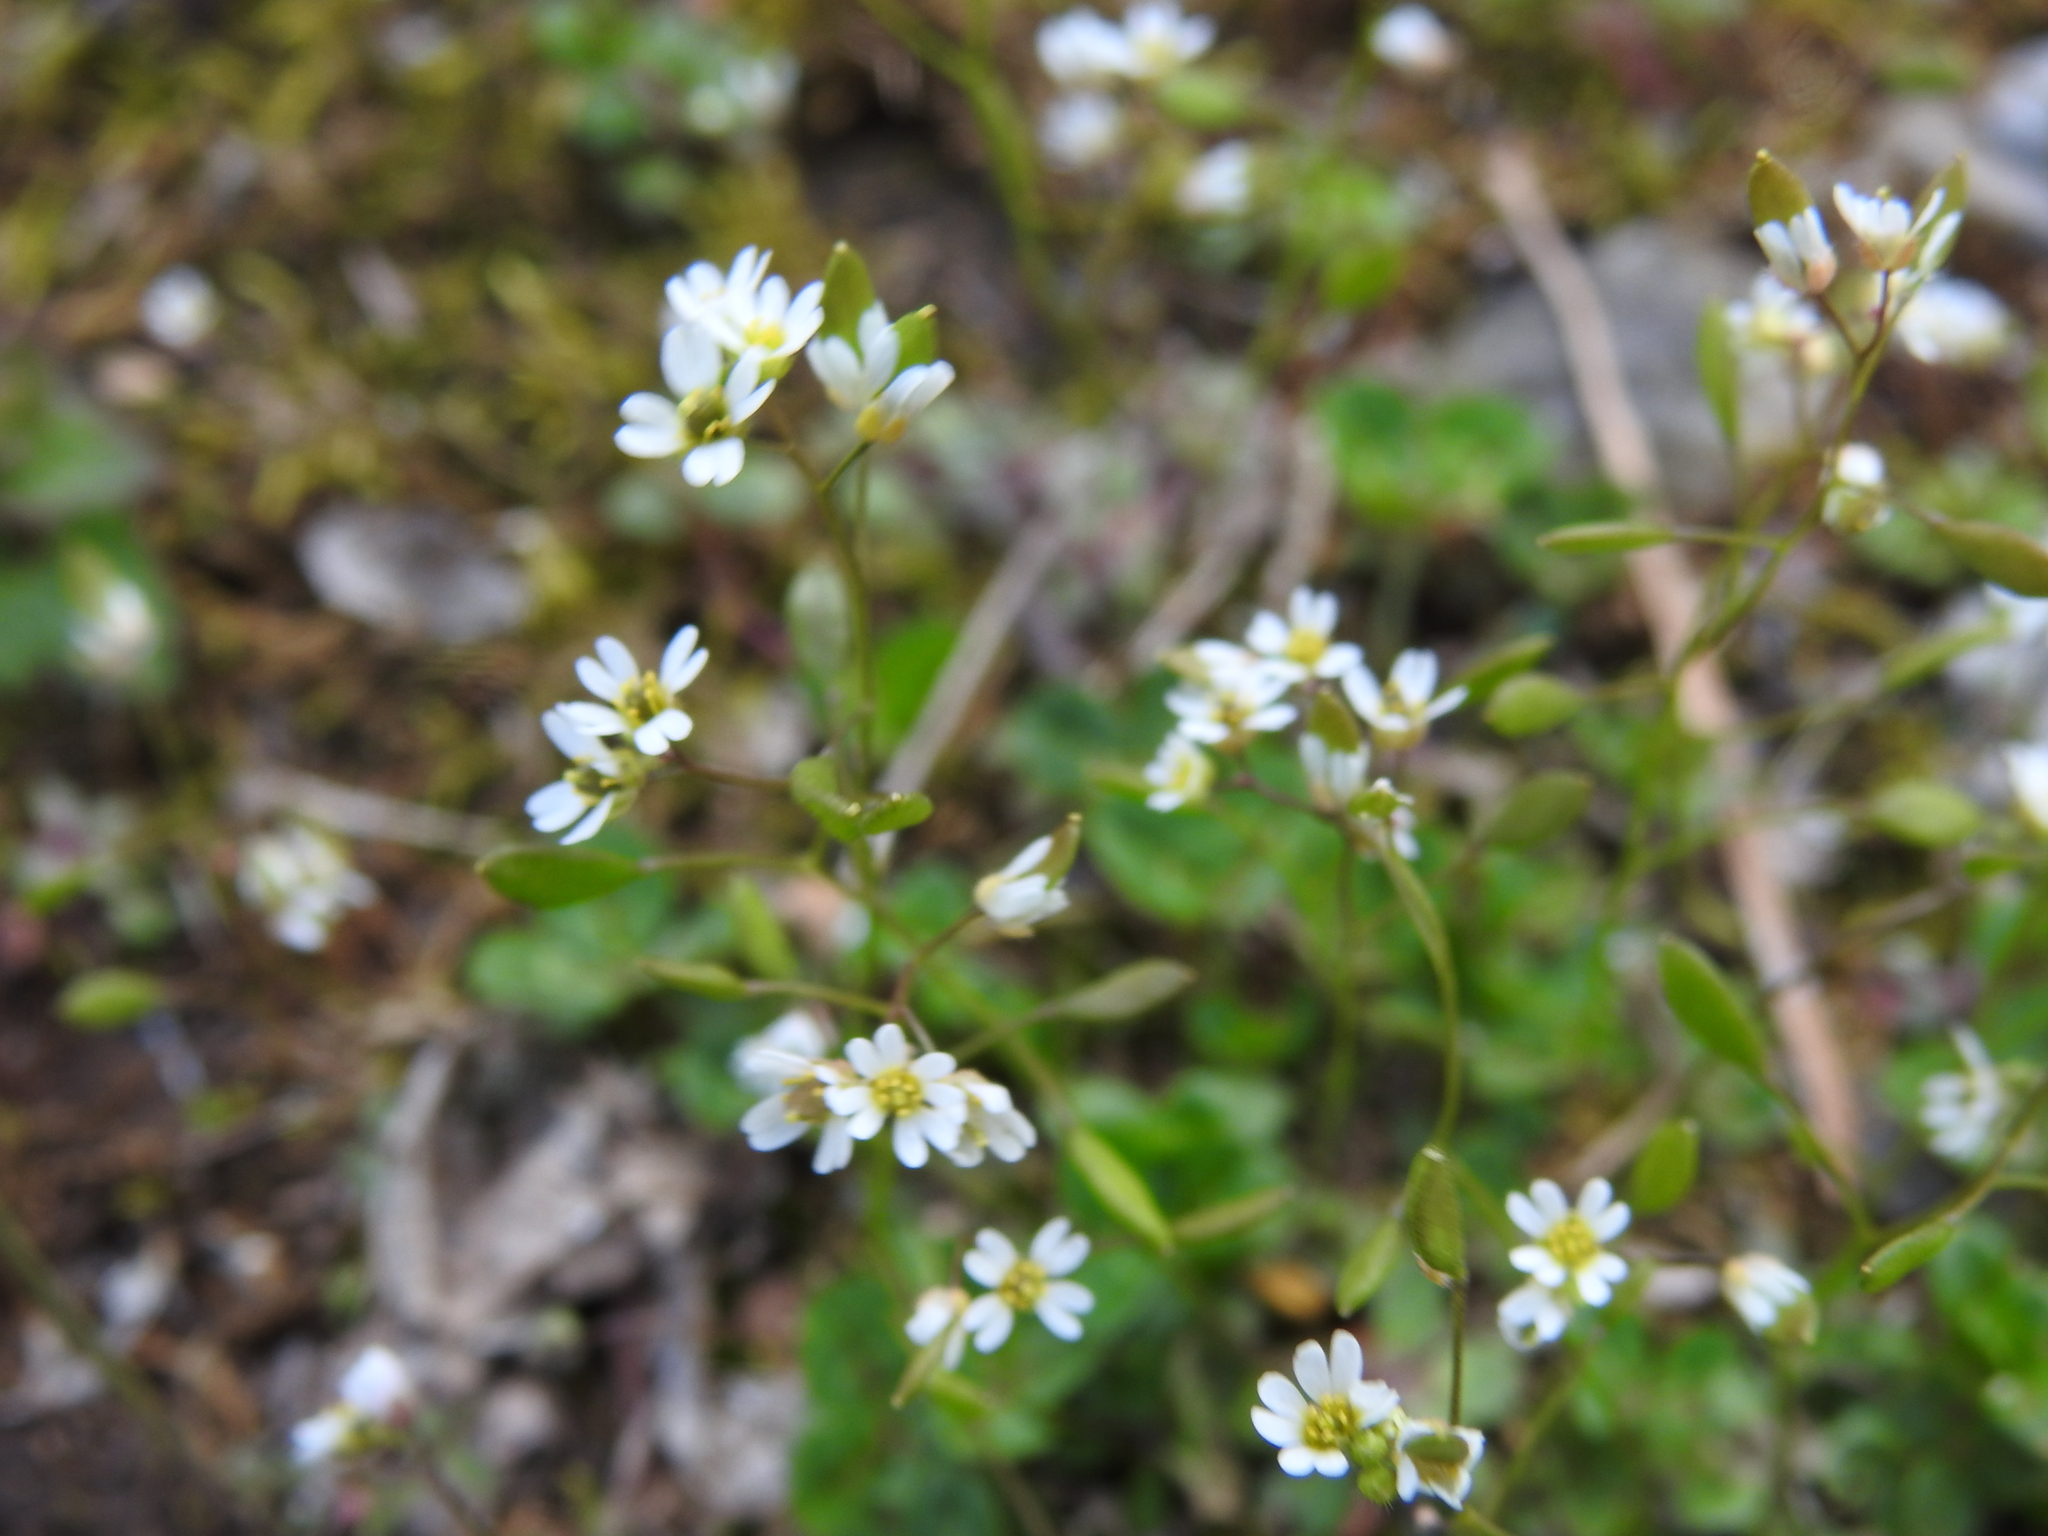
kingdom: Plantae
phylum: Tracheophyta
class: Magnoliopsida
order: Brassicales
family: Brassicaceae
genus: Draba
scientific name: Draba verna
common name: Spring draba
